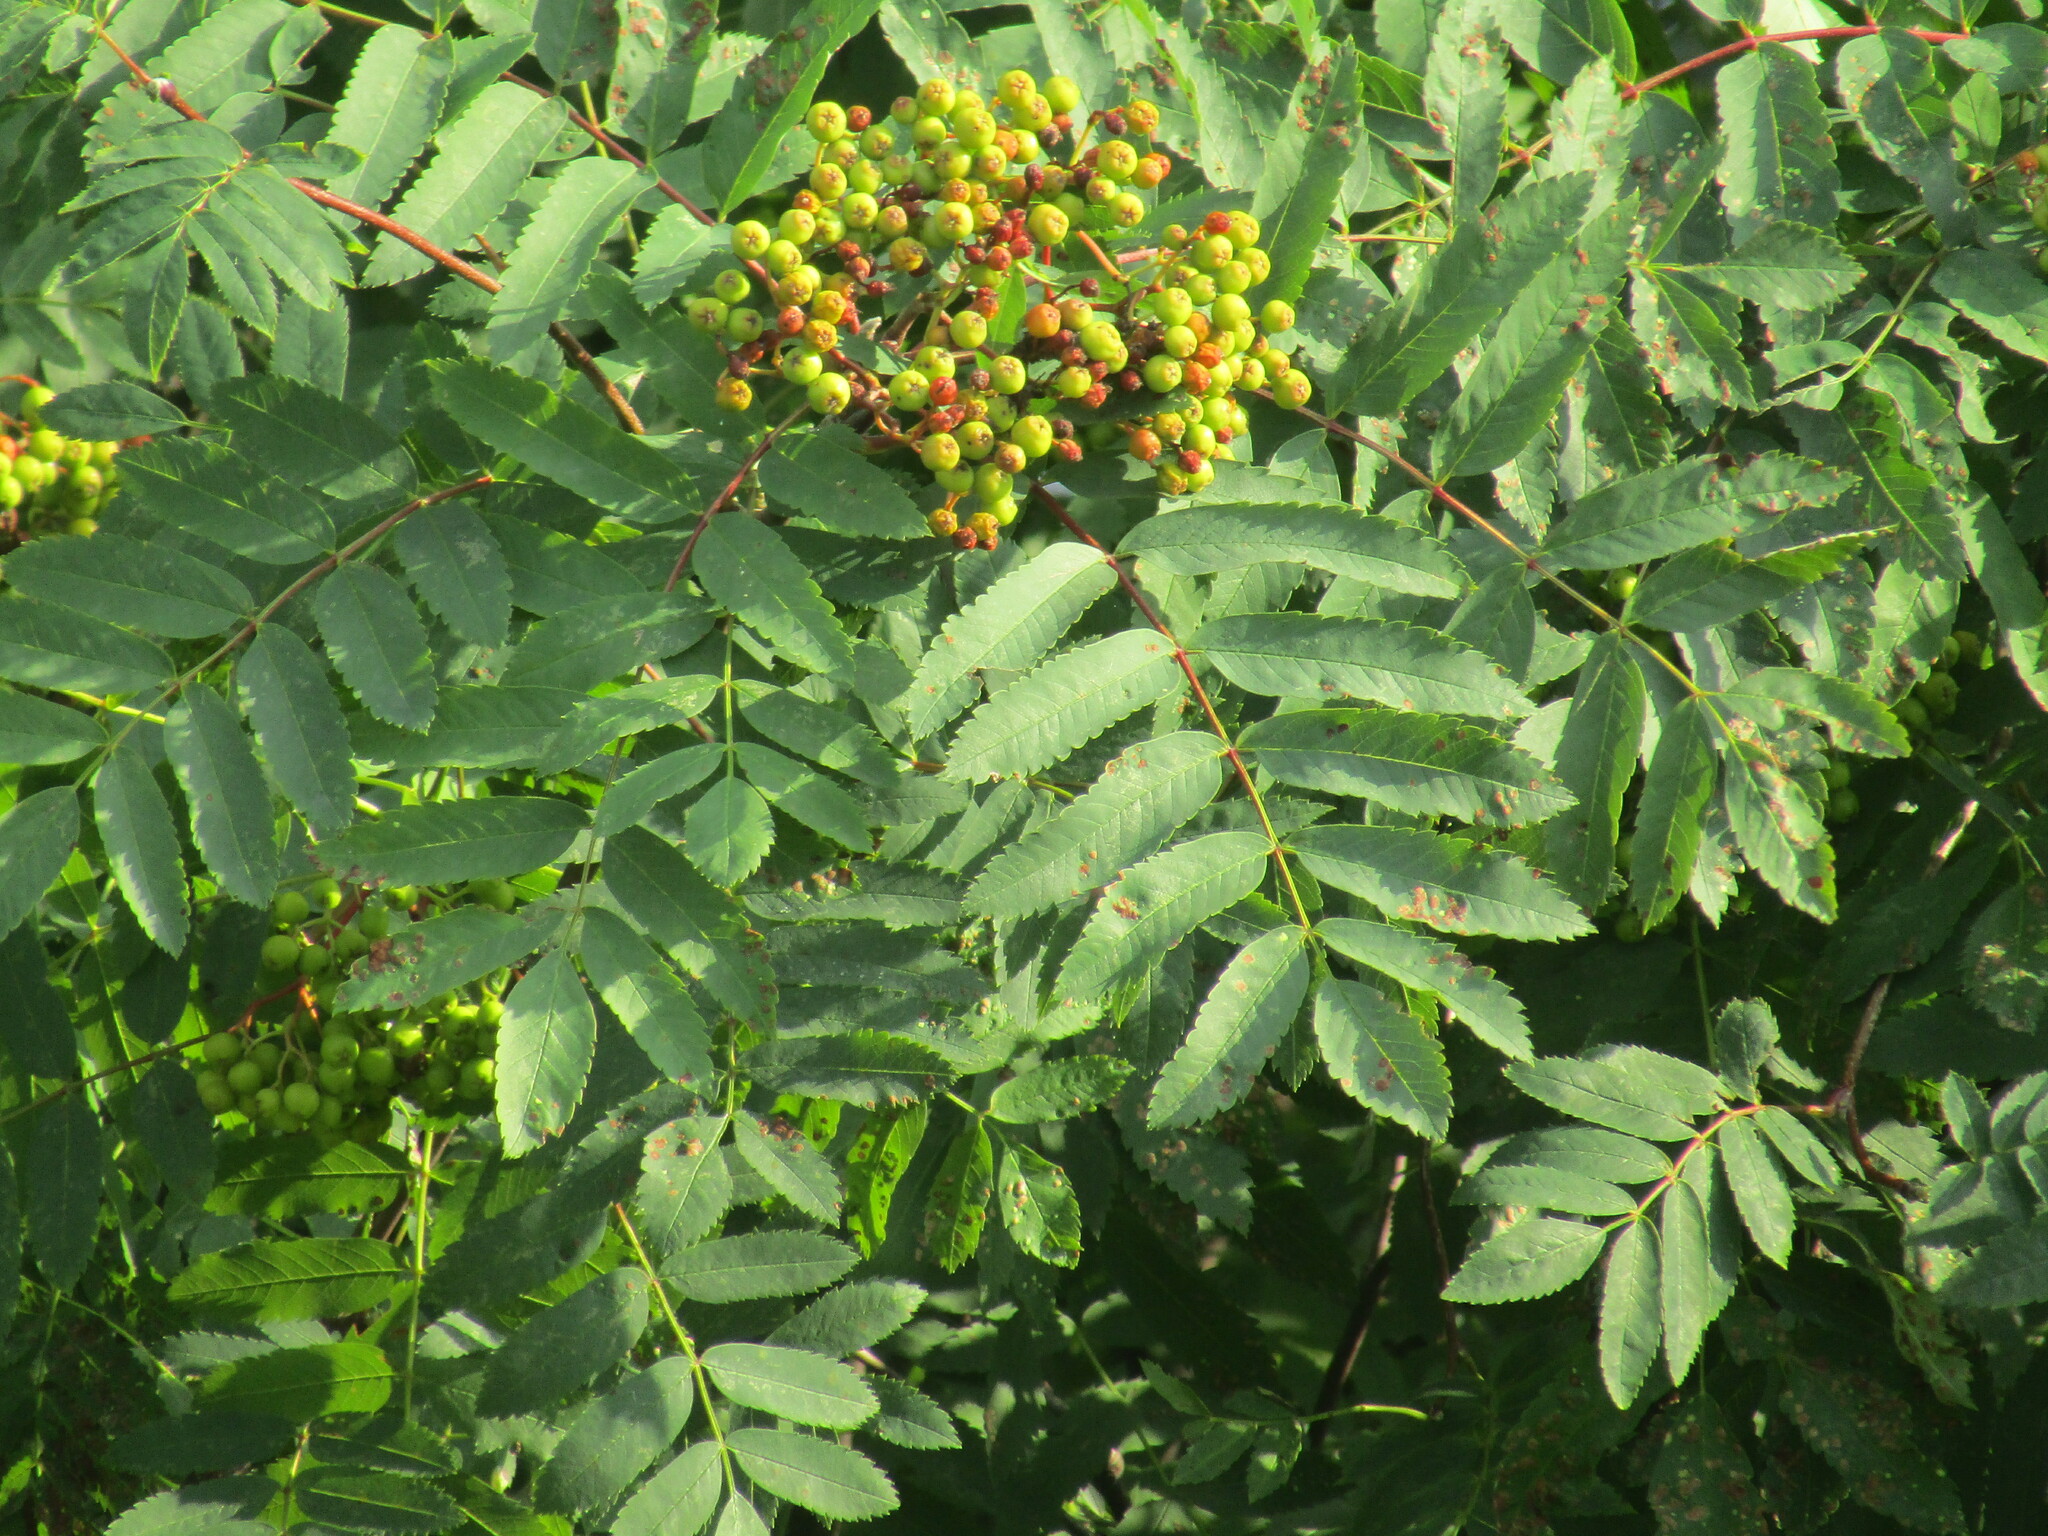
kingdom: Plantae
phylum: Tracheophyta
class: Magnoliopsida
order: Rosales
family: Rosaceae
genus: Sorbus
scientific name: Sorbus aucuparia
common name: Rowan
